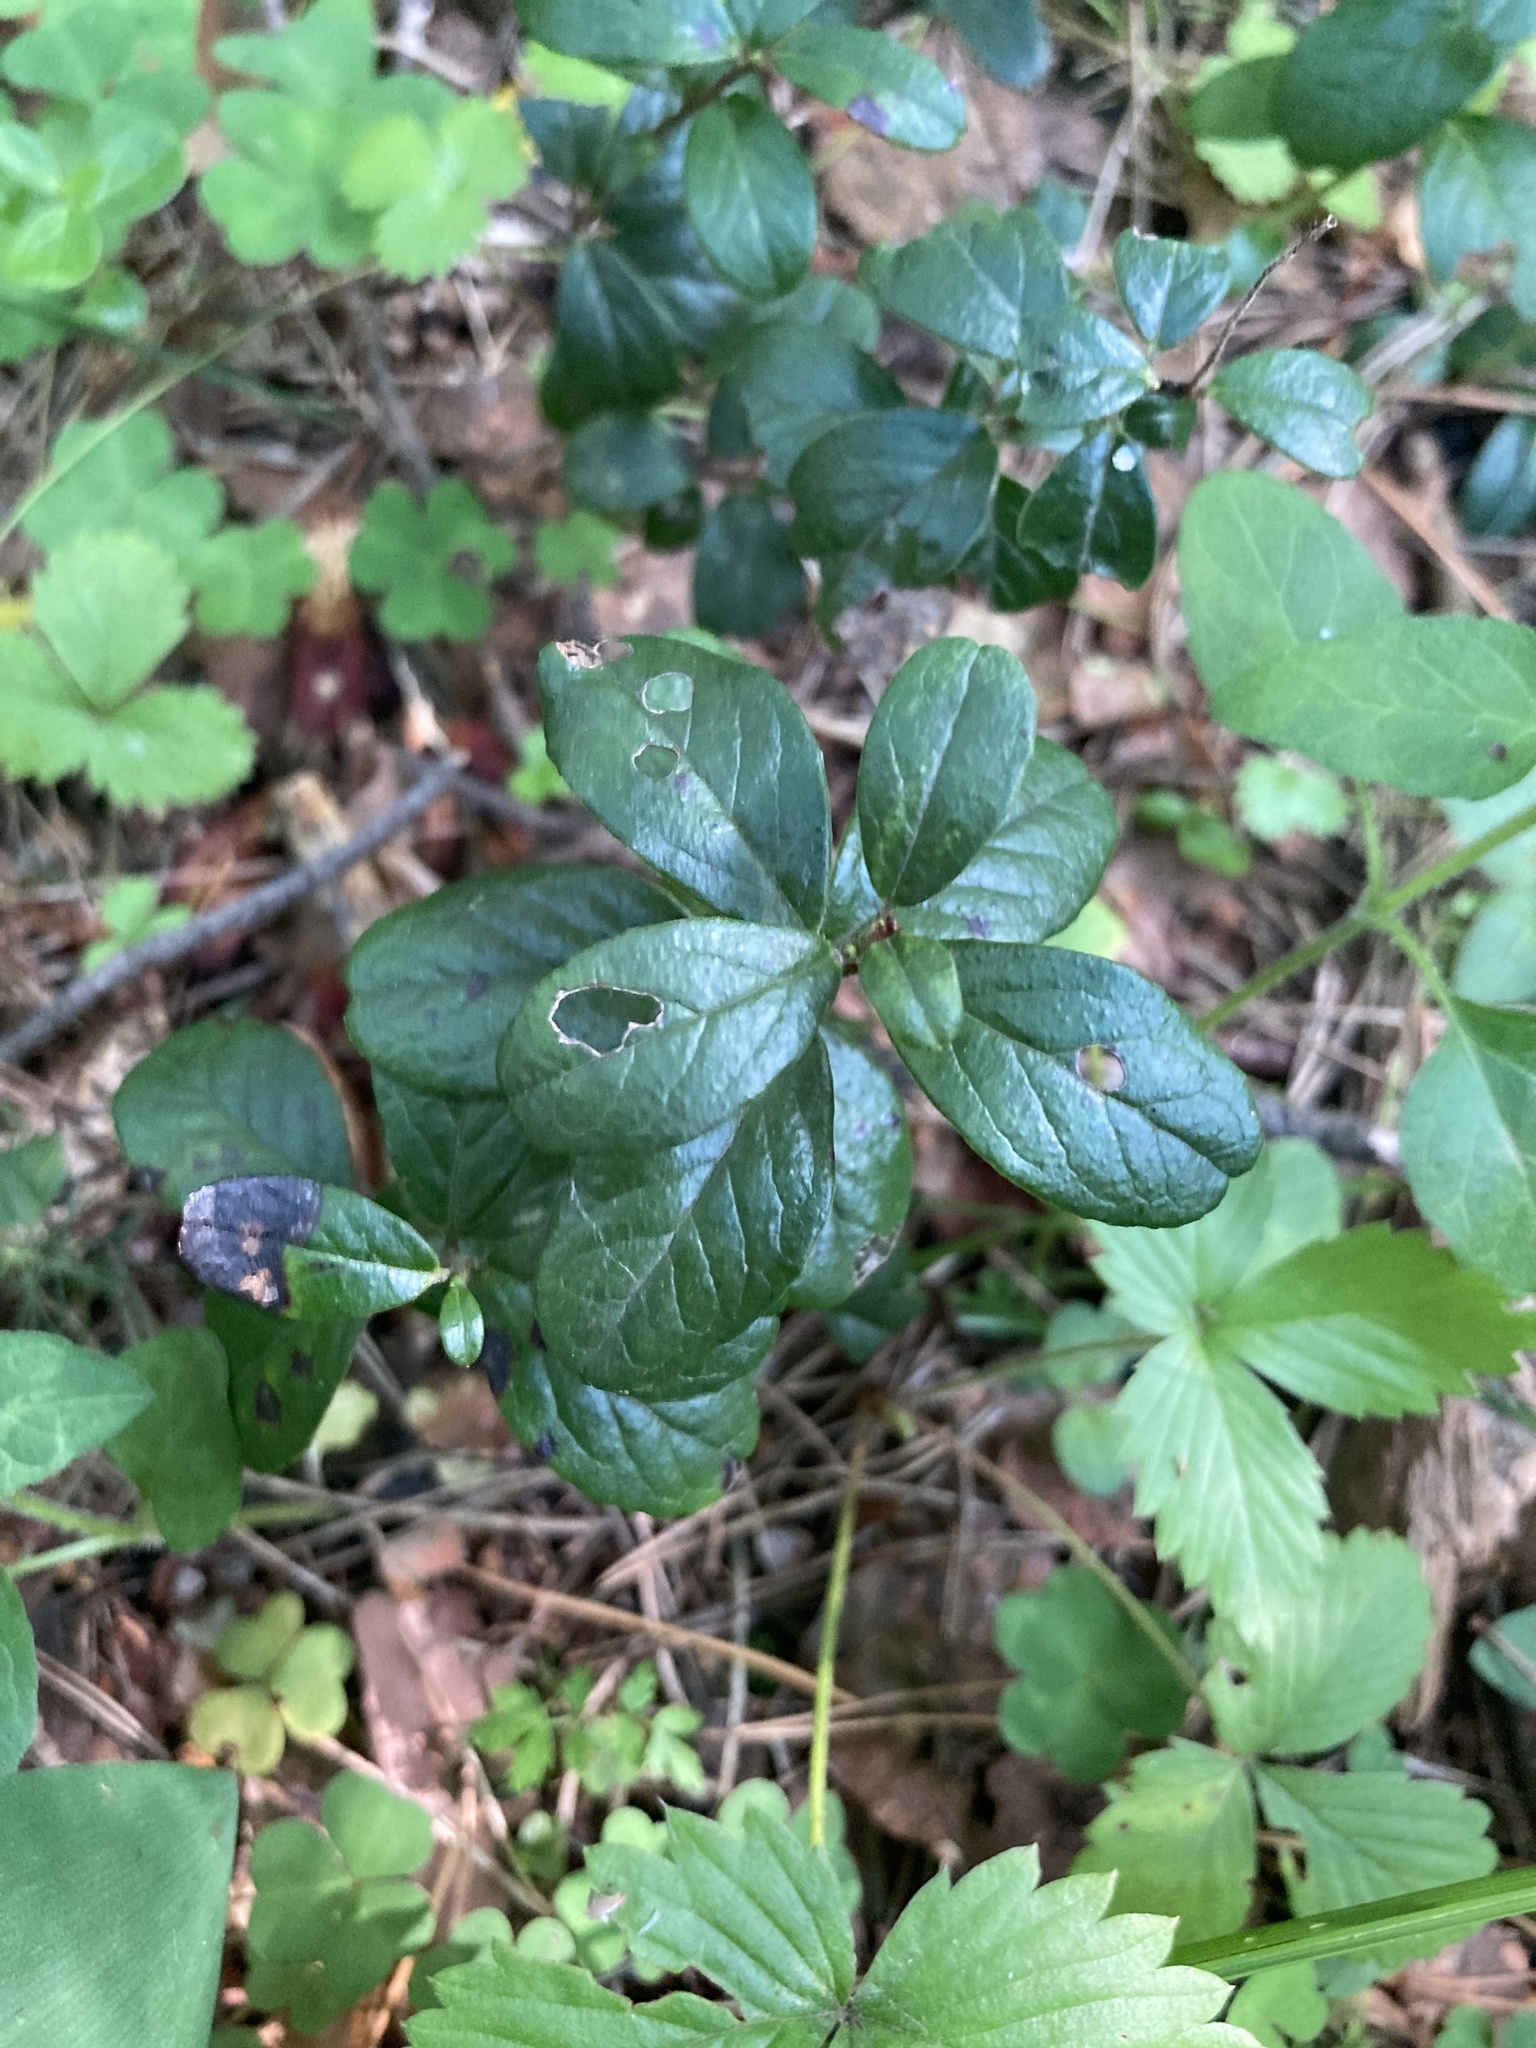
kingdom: Plantae
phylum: Tracheophyta
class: Magnoliopsida
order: Ericales
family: Ericaceae
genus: Vaccinium
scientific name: Vaccinium vitis-idaea
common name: Cowberry
